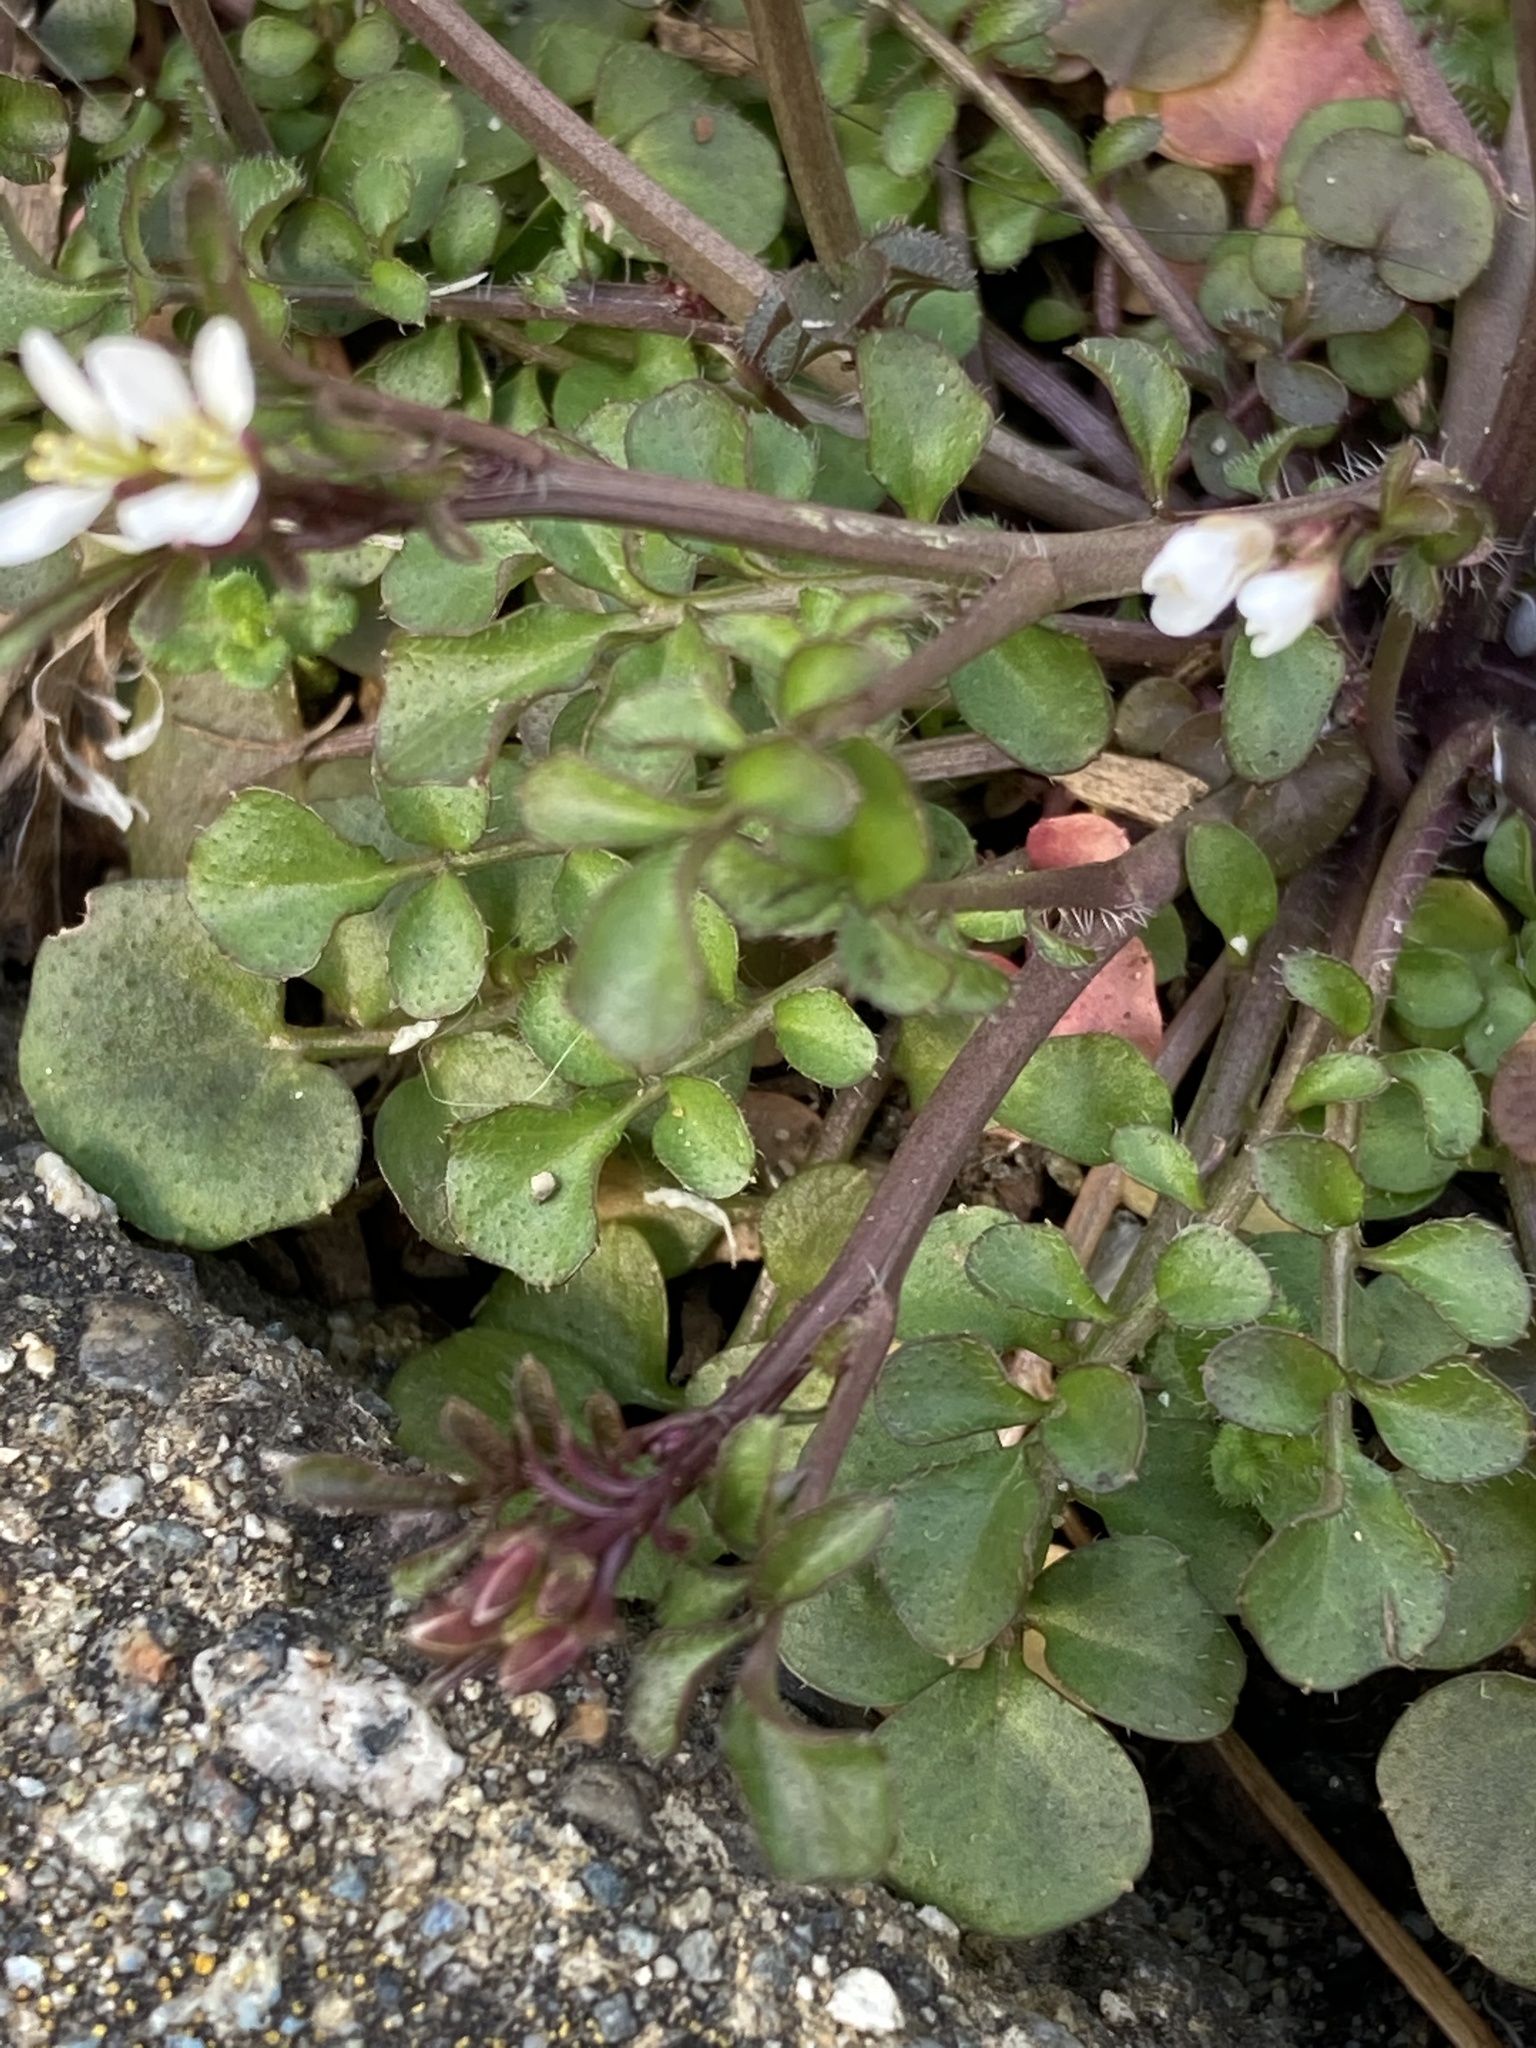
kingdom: Plantae
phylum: Tracheophyta
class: Magnoliopsida
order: Brassicales
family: Brassicaceae
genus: Cardamine
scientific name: Cardamine hirsuta
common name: Hairy bittercress
